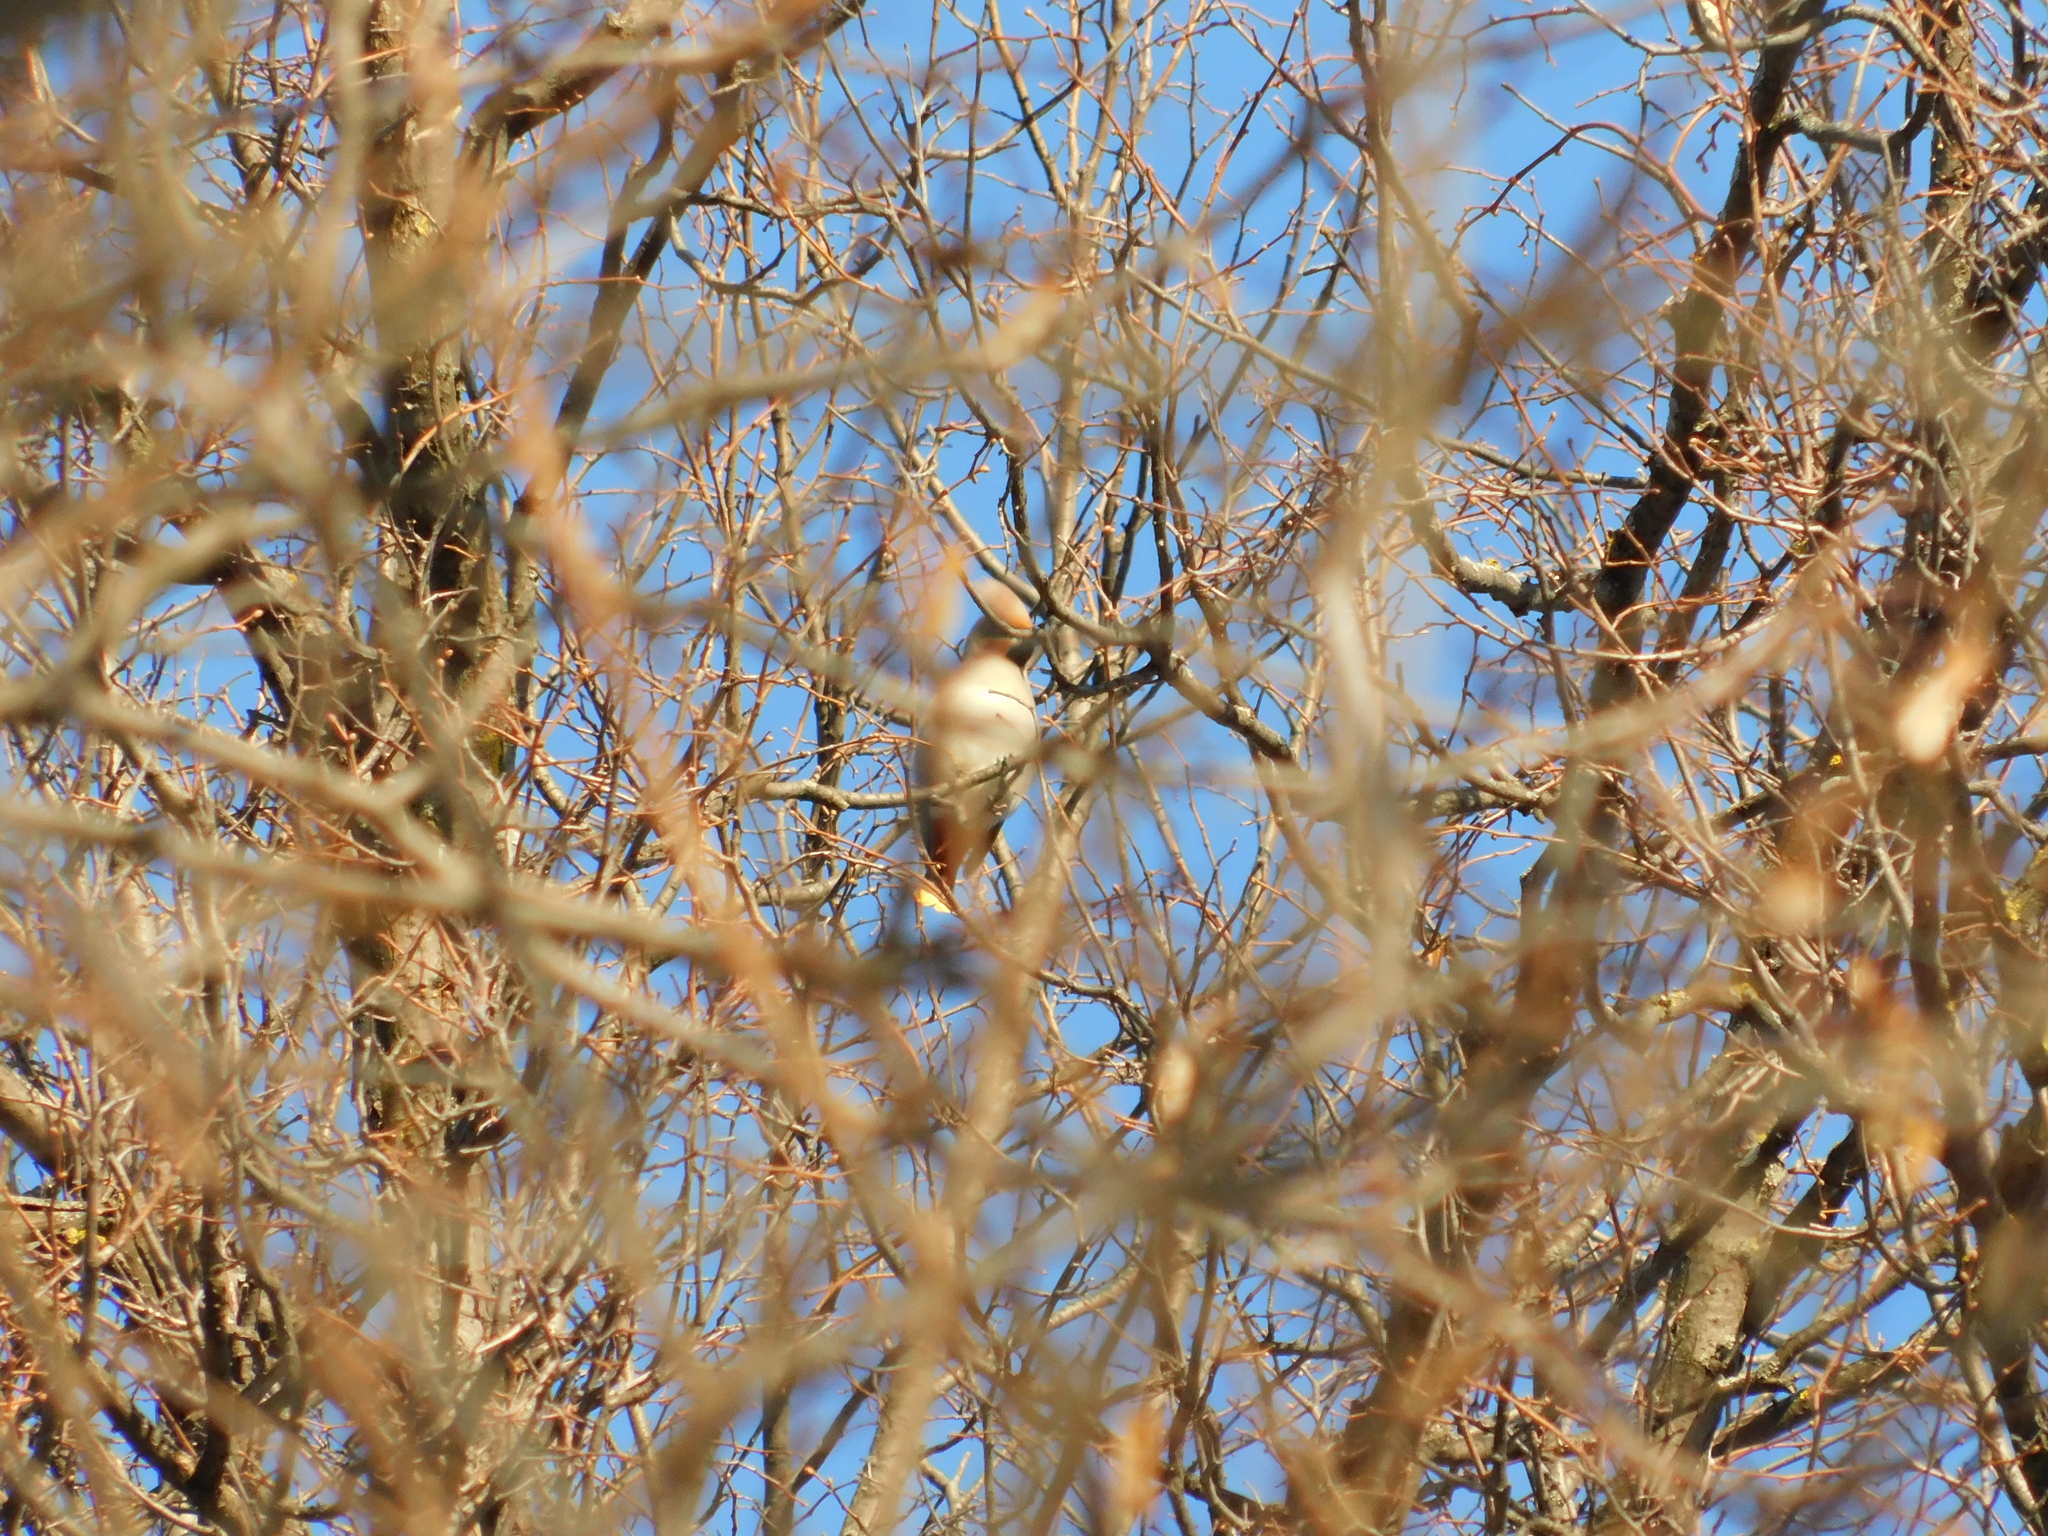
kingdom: Animalia
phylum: Chordata
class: Aves
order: Passeriformes
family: Bombycillidae
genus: Bombycilla
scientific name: Bombycilla garrulus
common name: Bohemian waxwing
